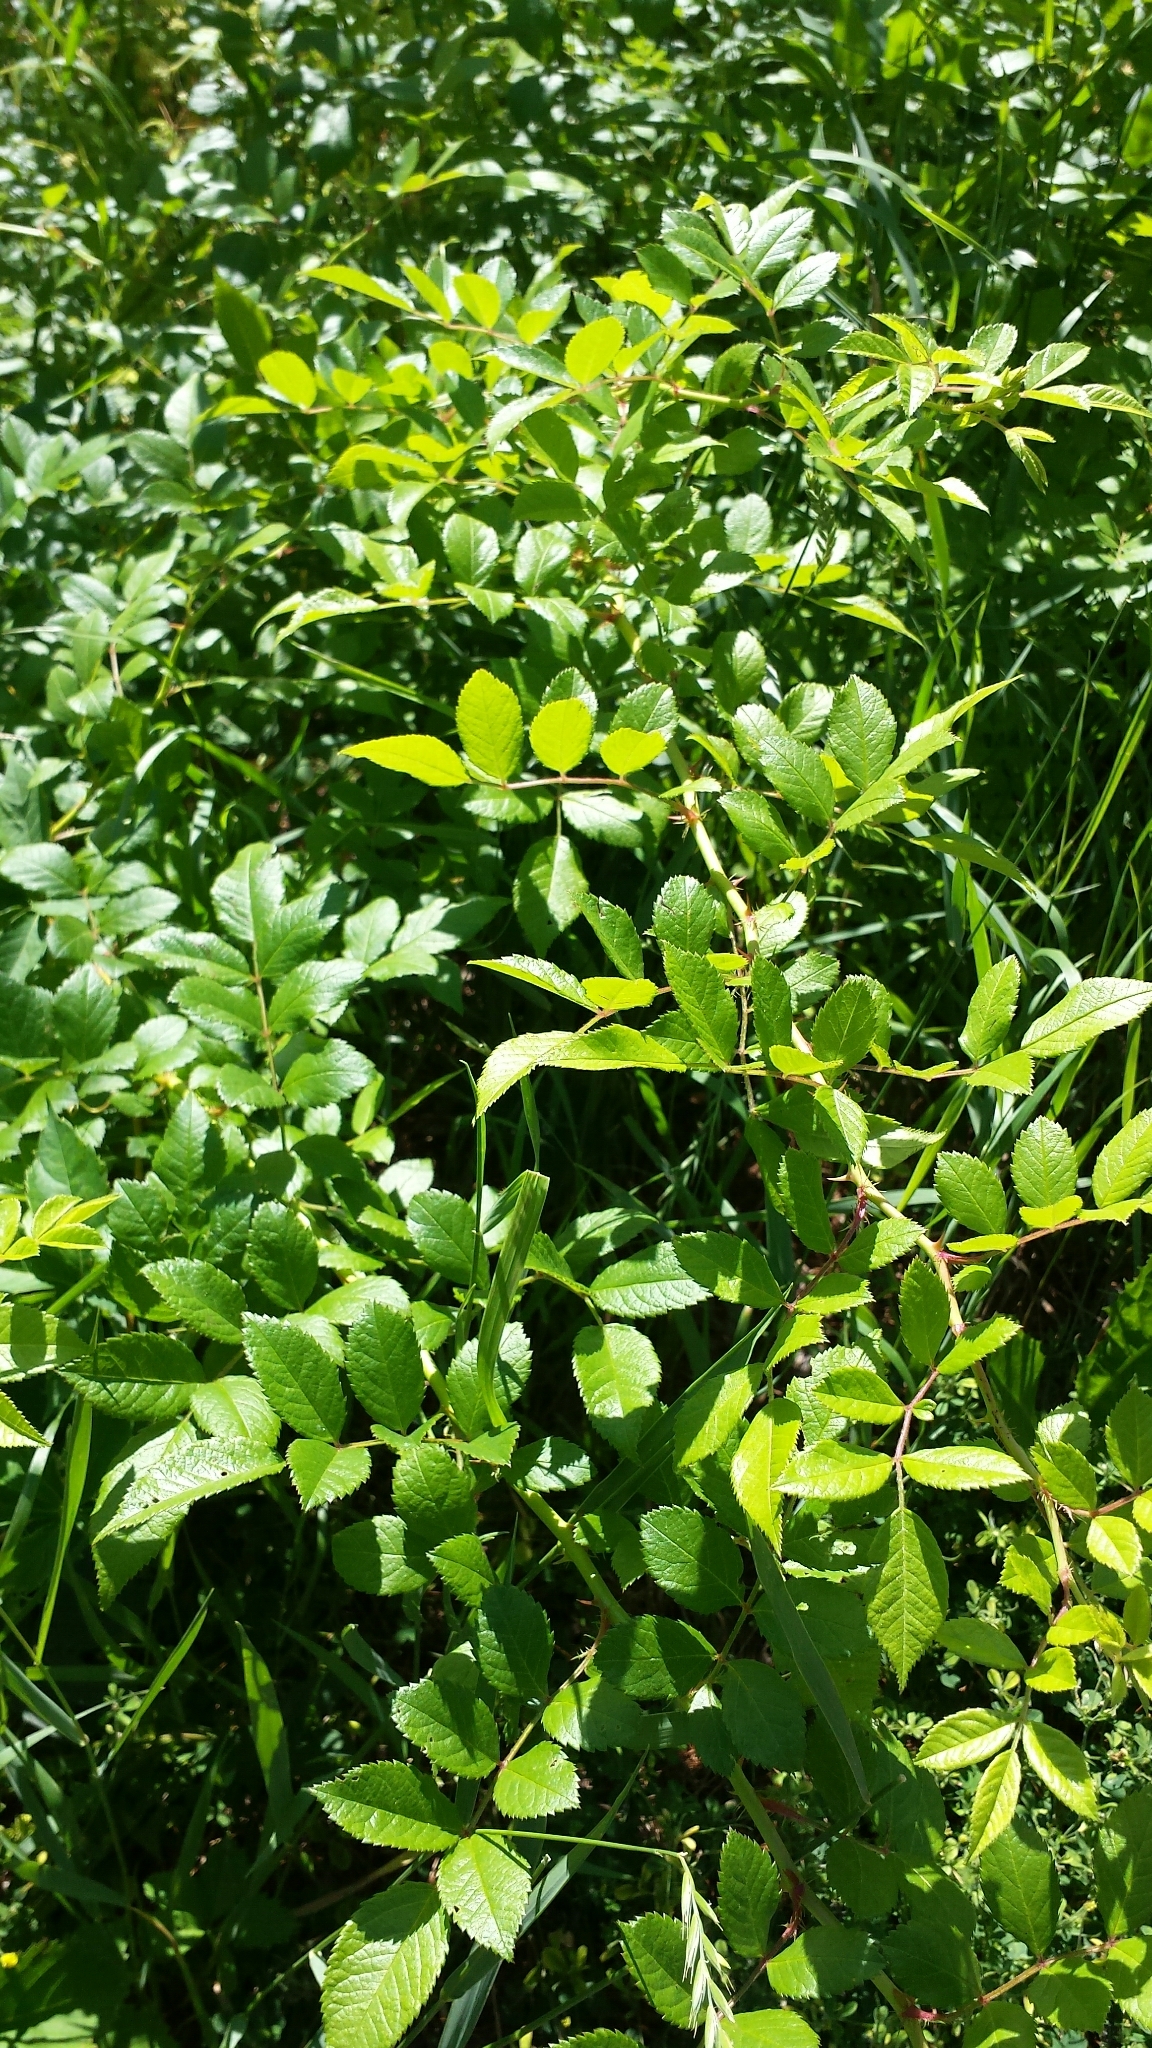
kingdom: Plantae
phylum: Tracheophyta
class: Magnoliopsida
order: Rosales
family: Rosaceae
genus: Rosa
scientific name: Rosa multiflora
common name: Multiflora rose
